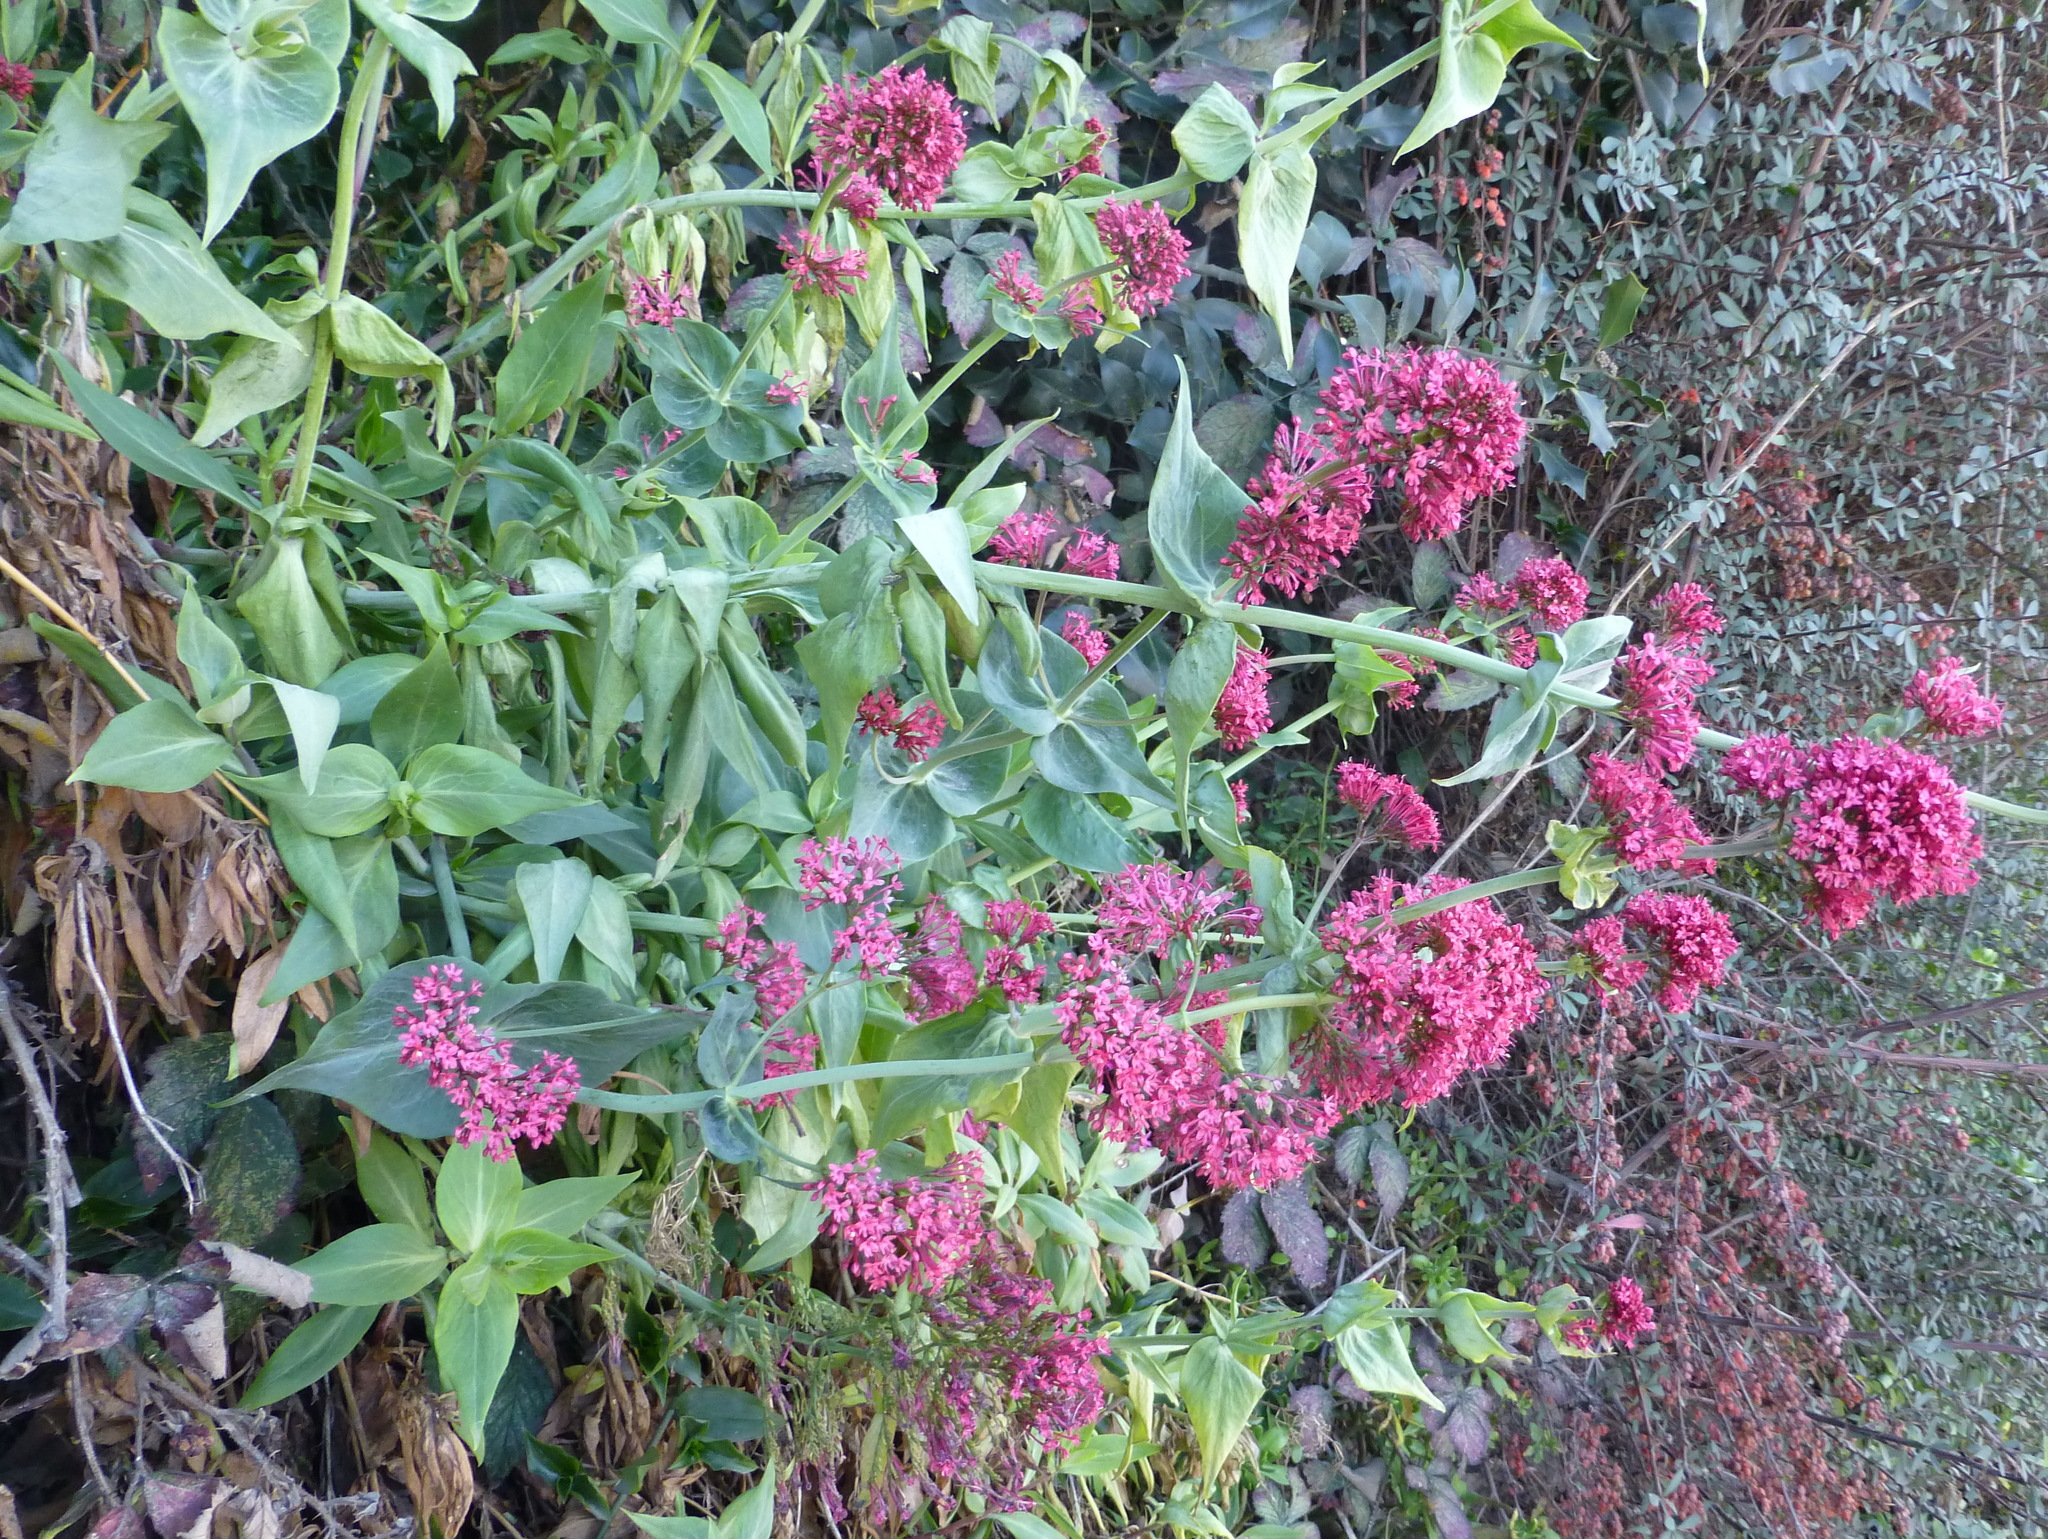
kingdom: Plantae
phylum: Tracheophyta
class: Magnoliopsida
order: Dipsacales
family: Caprifoliaceae
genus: Centranthus
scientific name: Centranthus ruber
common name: Red valerian
